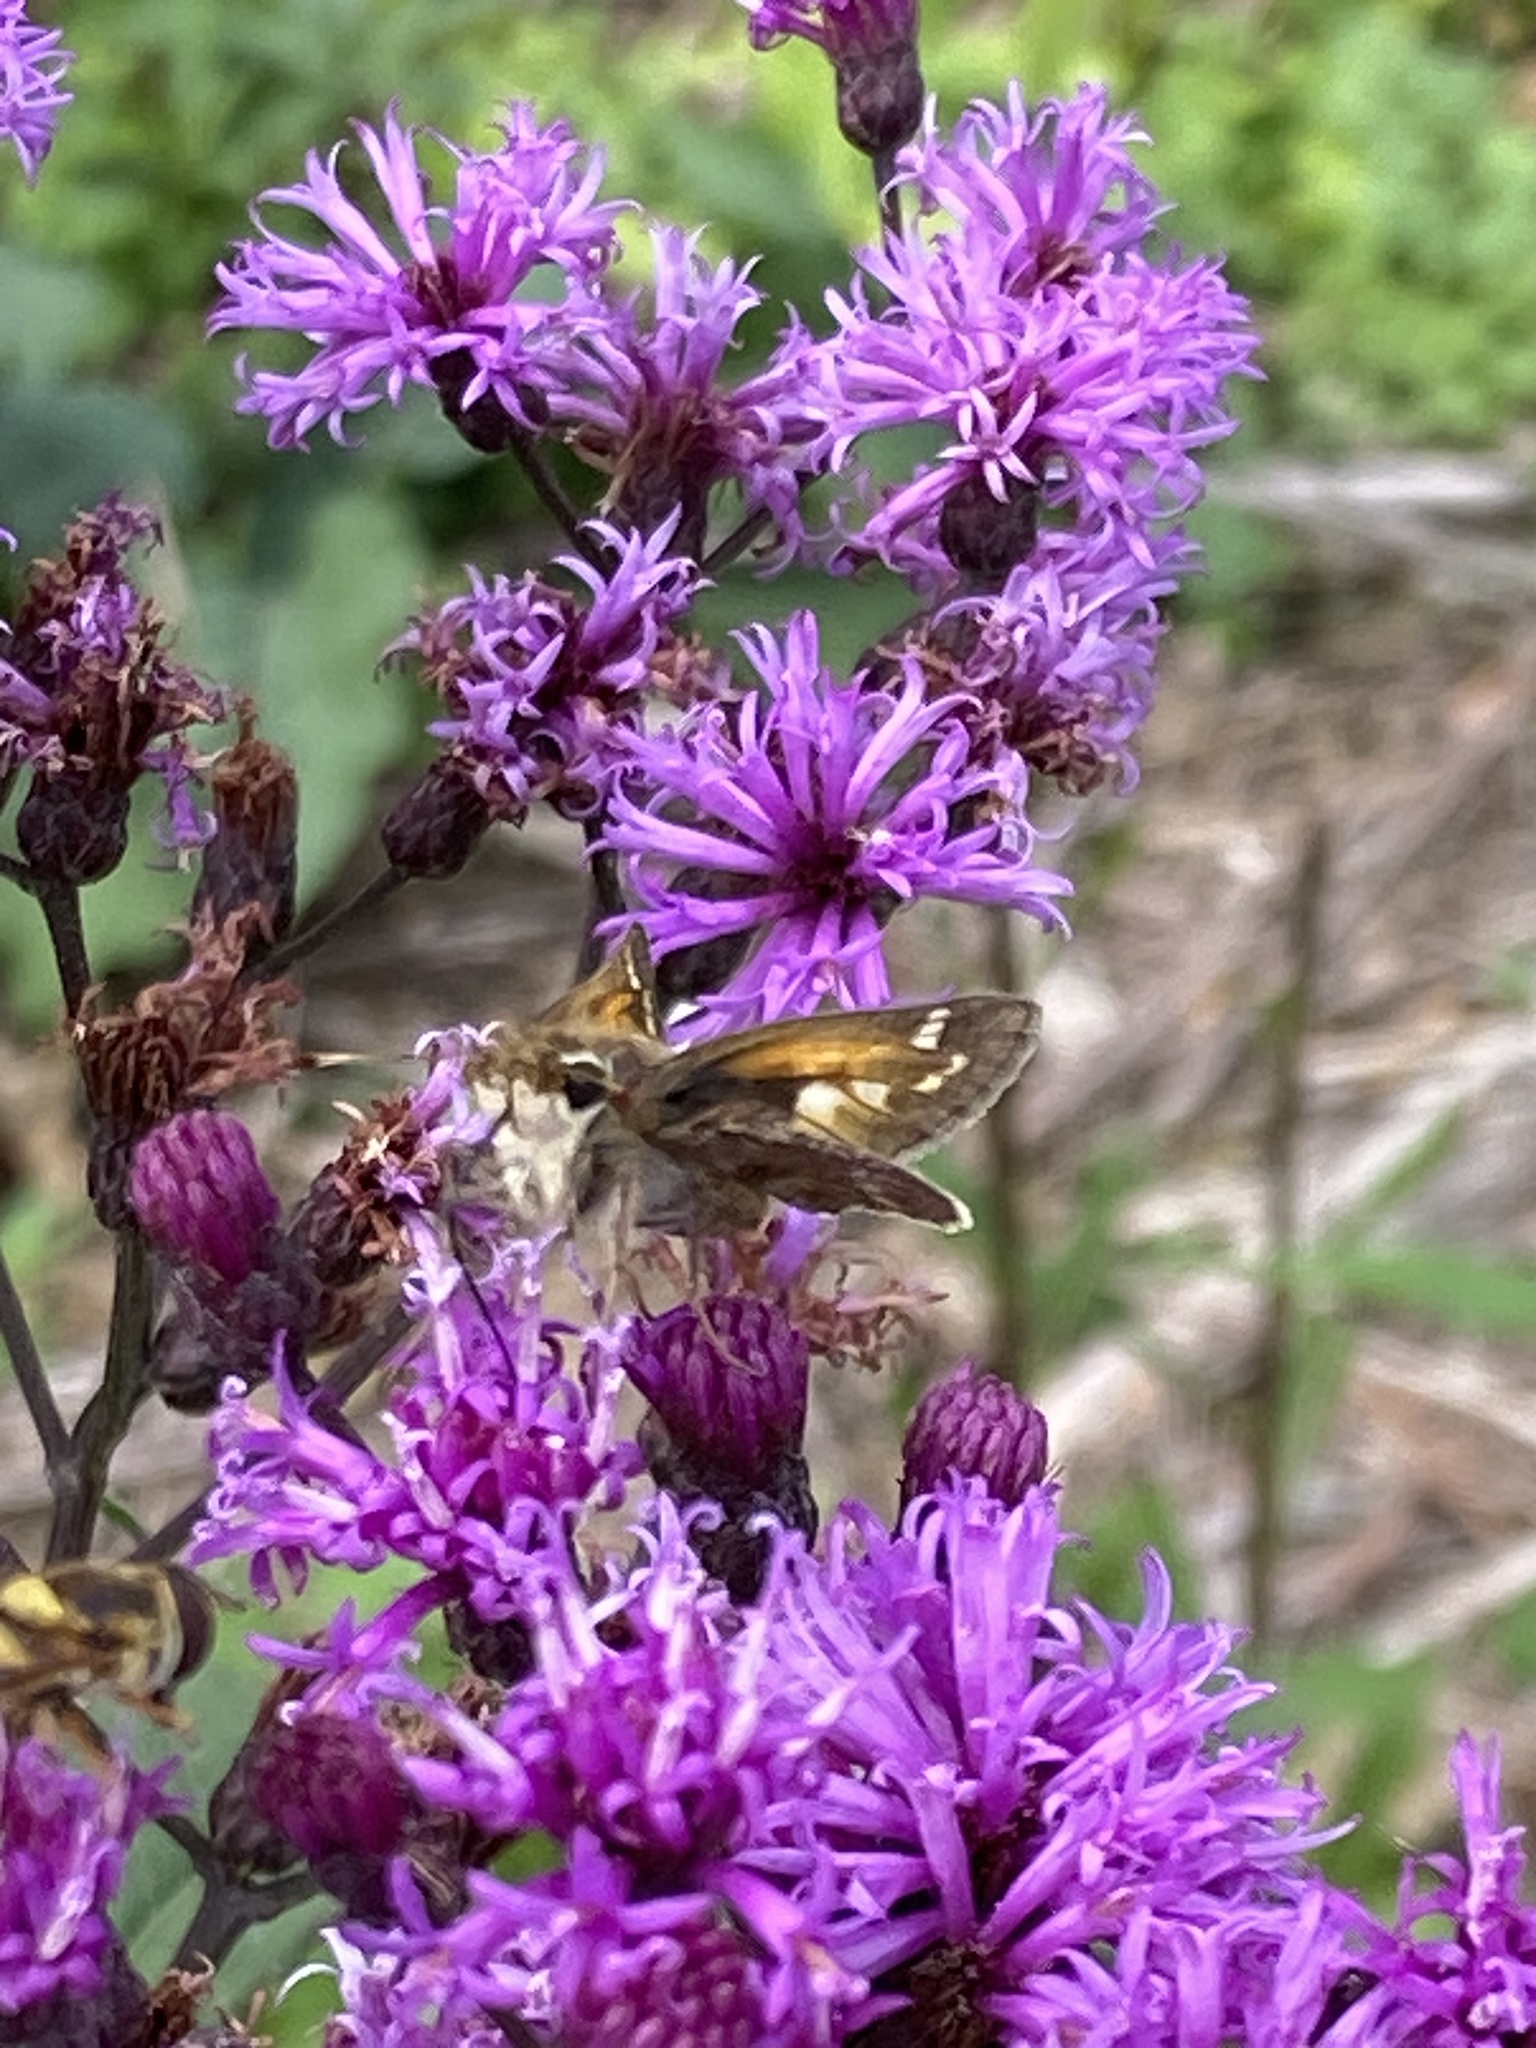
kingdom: Animalia
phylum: Arthropoda
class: Insecta
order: Lepidoptera
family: Hesperiidae
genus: Atalopedes
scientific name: Atalopedes
